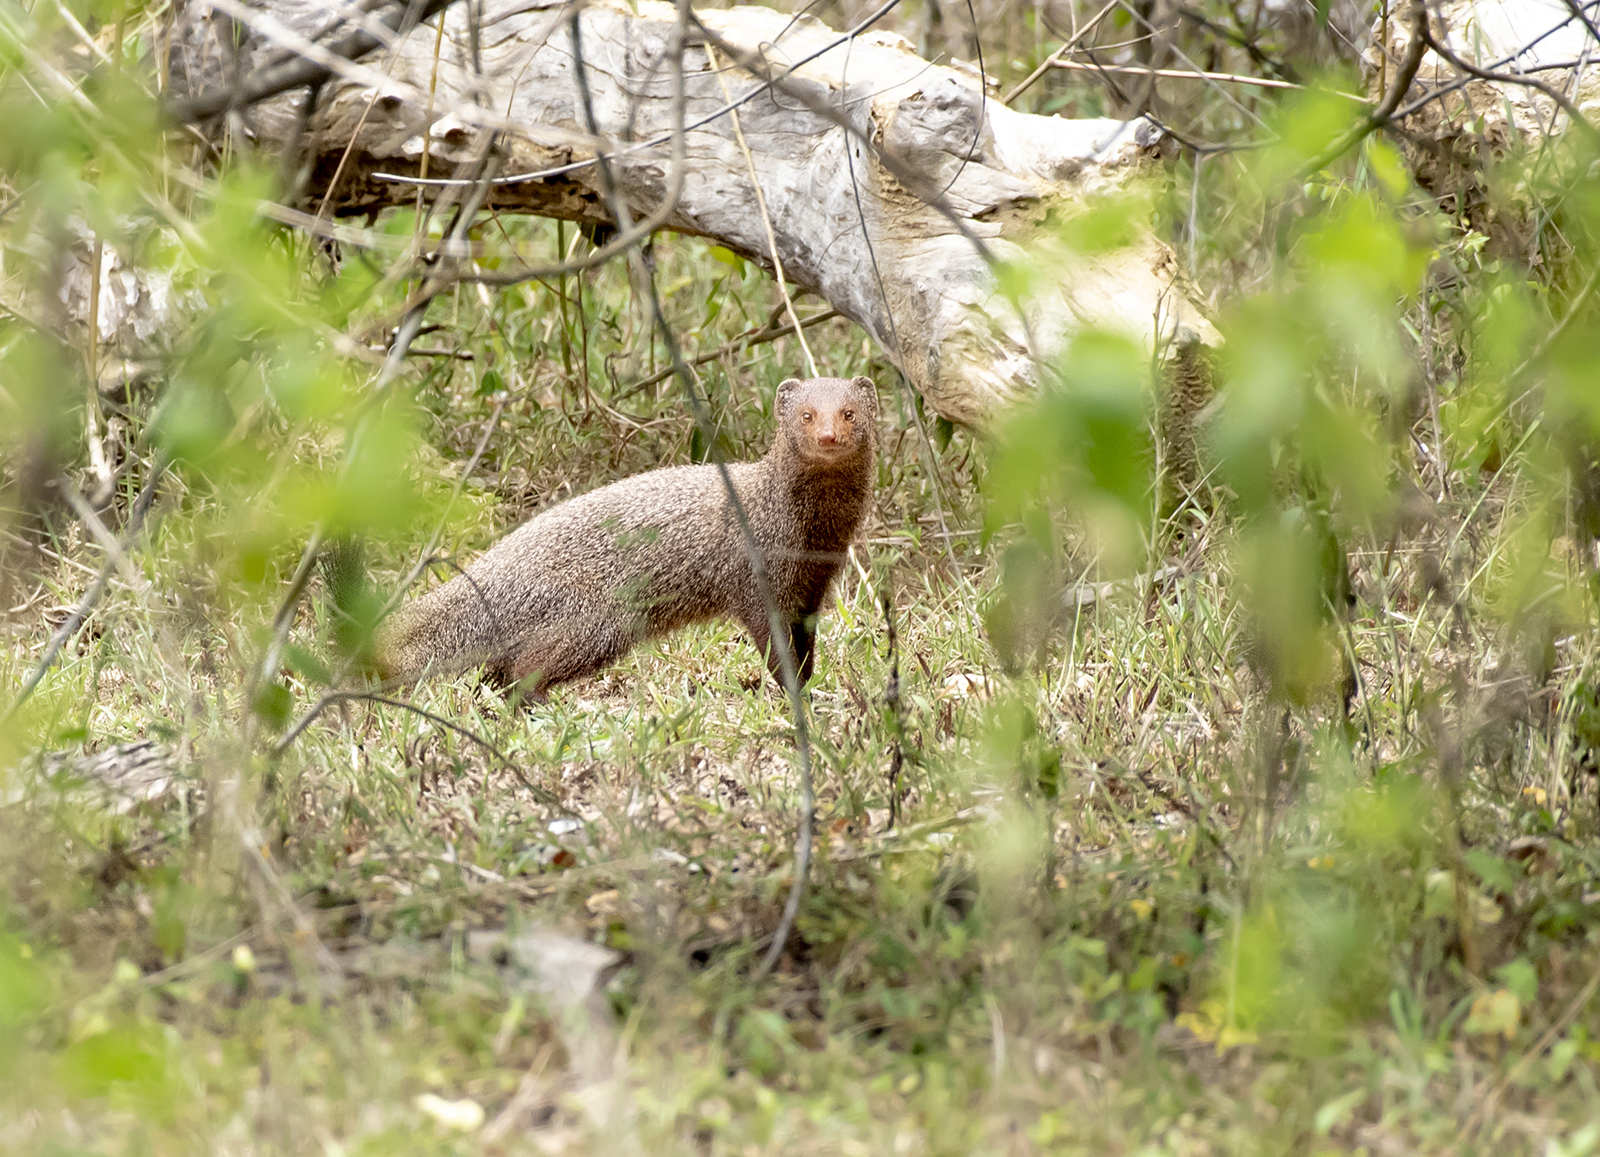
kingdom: Animalia
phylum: Chordata
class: Mammalia
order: Carnivora
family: Herpestidae
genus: Herpestes
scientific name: Herpestes smithii
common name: Ruddy mongoose
